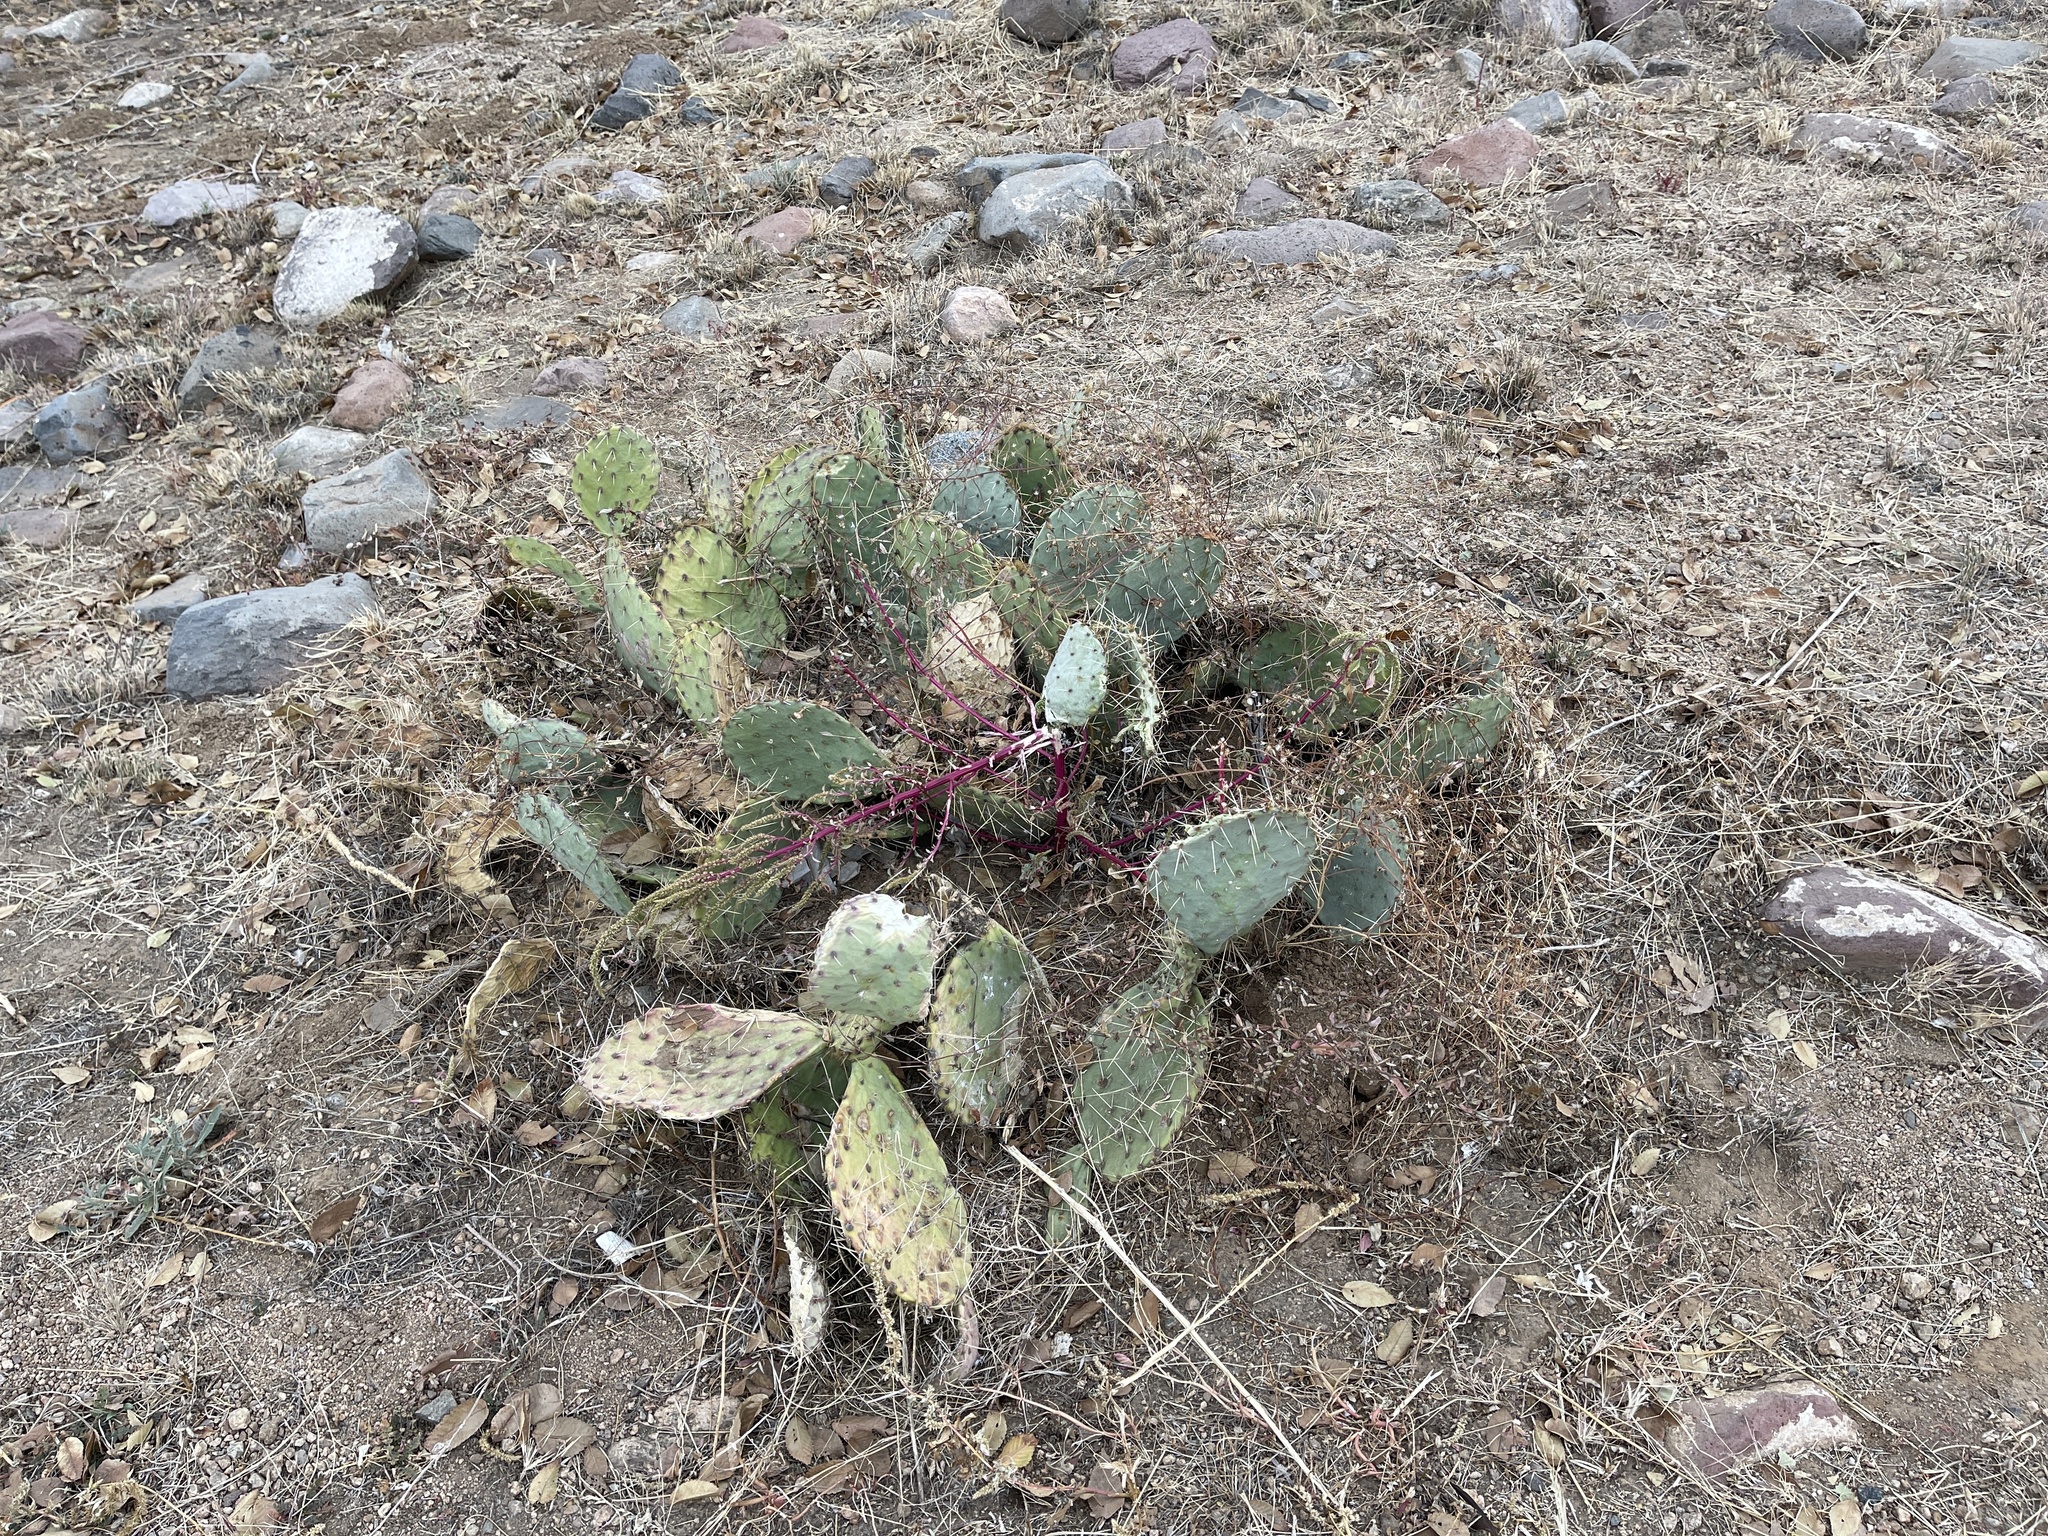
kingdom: Plantae
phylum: Tracheophyta
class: Magnoliopsida
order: Caryophyllales
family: Cactaceae
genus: Opuntia
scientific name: Opuntia phaeacantha
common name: New mexico prickly-pear
